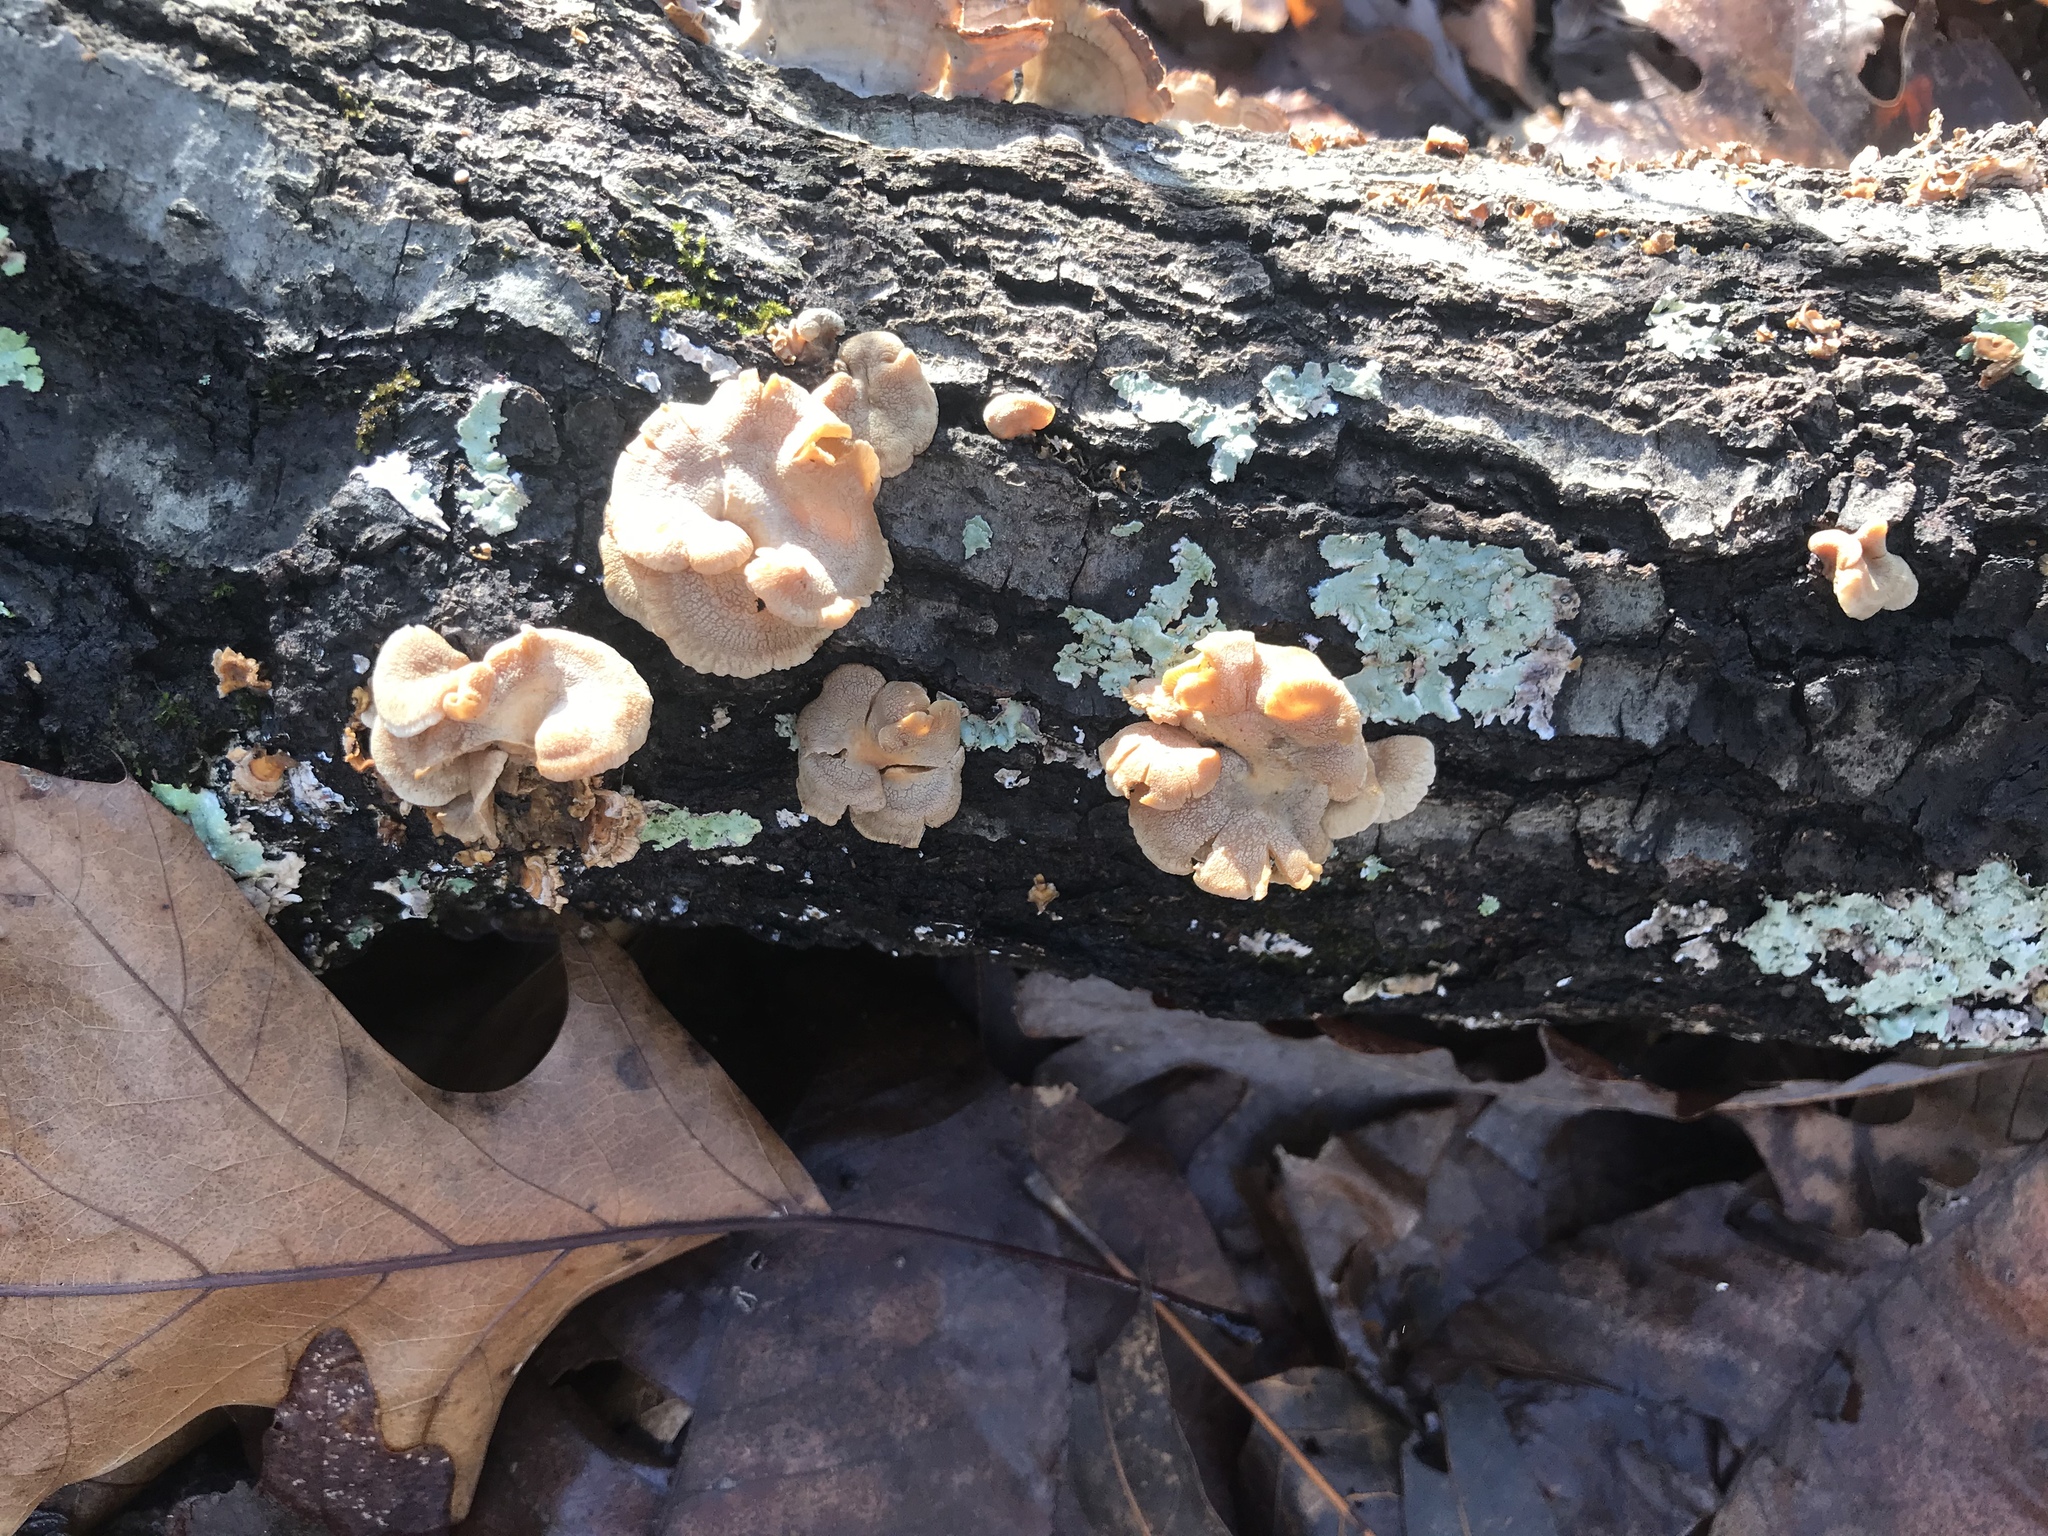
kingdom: Fungi
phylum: Basidiomycota
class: Agaricomycetes
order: Agaricales
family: Mycenaceae
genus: Panellus
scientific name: Panellus stipticus
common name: Bitter oysterling
